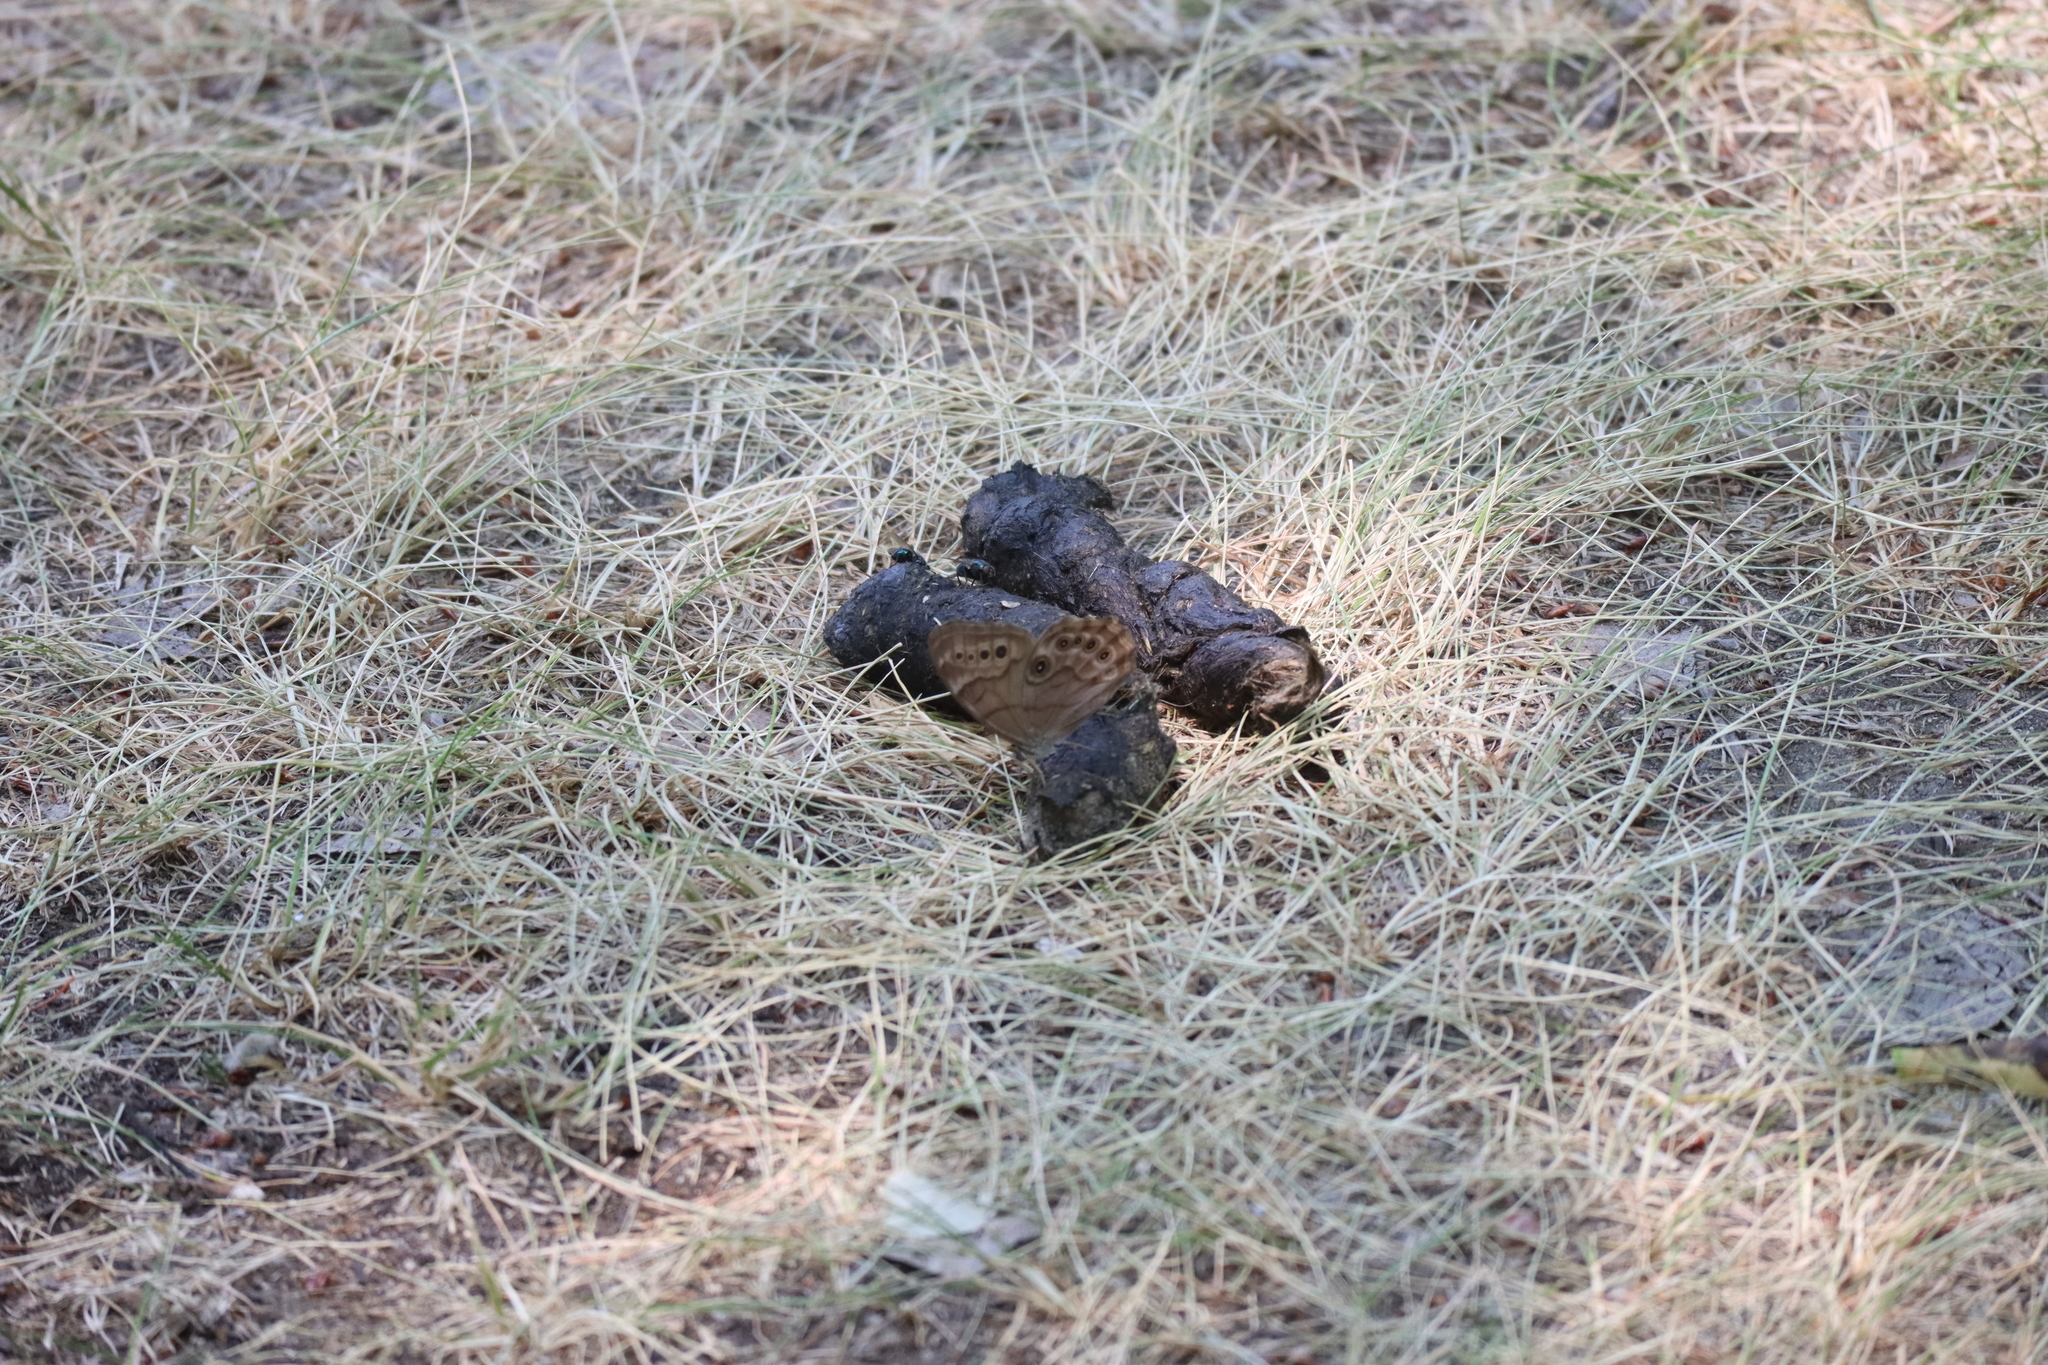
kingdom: Animalia
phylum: Chordata
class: Mammalia
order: Carnivora
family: Ursidae
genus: Ursus
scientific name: Ursus americanus
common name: American black bear
